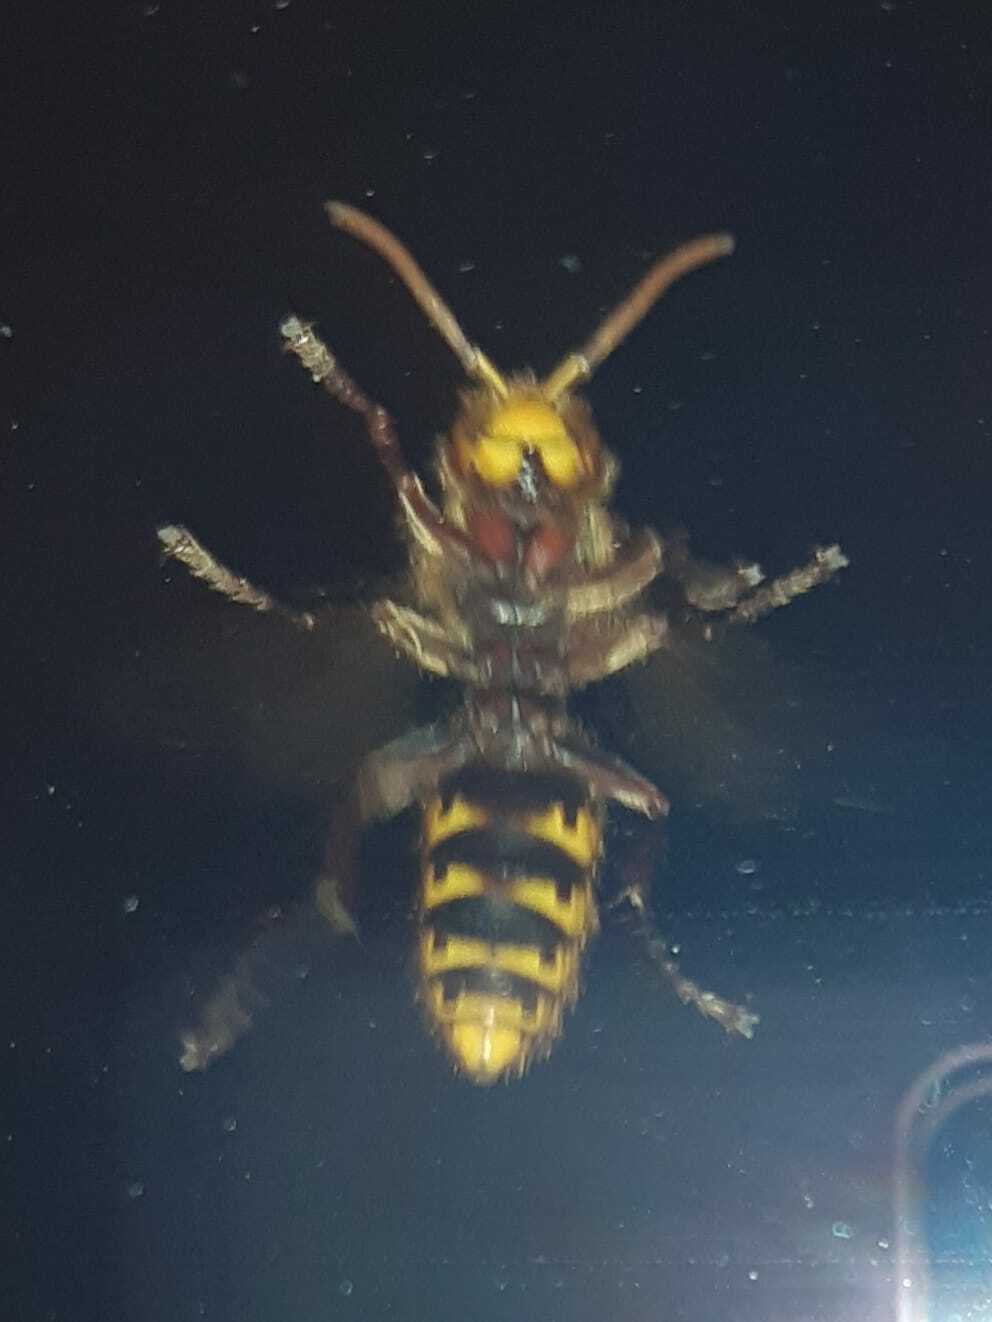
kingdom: Animalia
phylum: Arthropoda
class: Insecta
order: Hymenoptera
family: Vespidae
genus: Vespa
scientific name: Vespa crabro
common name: Hornet
